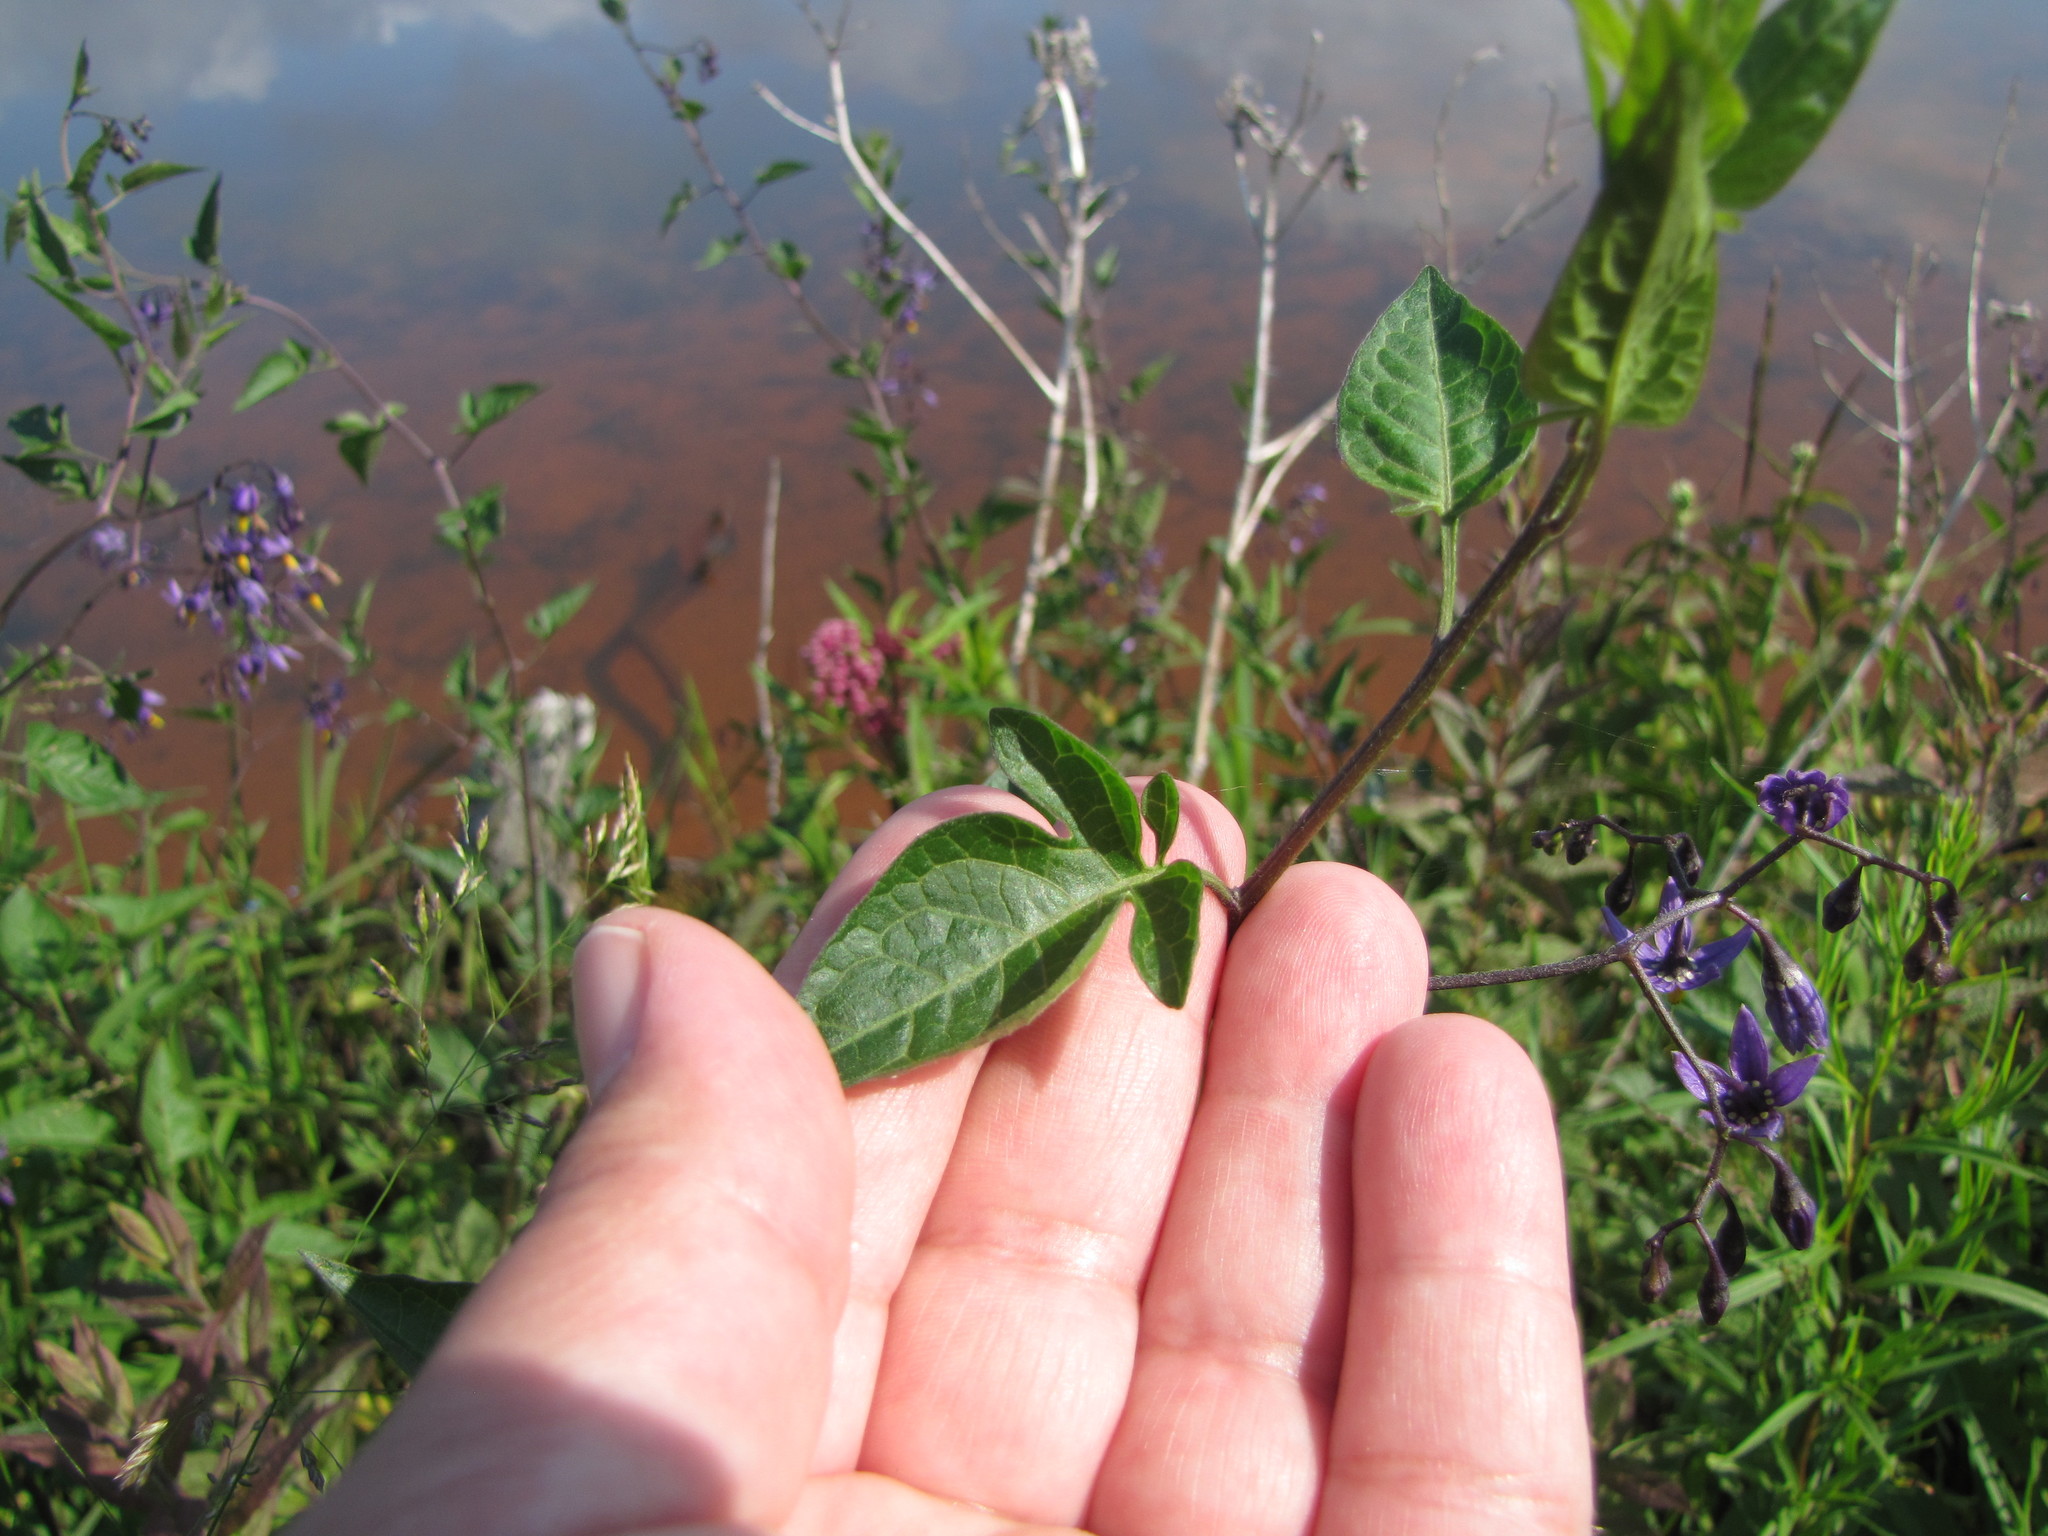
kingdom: Plantae
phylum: Tracheophyta
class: Magnoliopsida
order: Solanales
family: Solanaceae
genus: Solanum
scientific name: Solanum dulcamara
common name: Climbing nightshade
